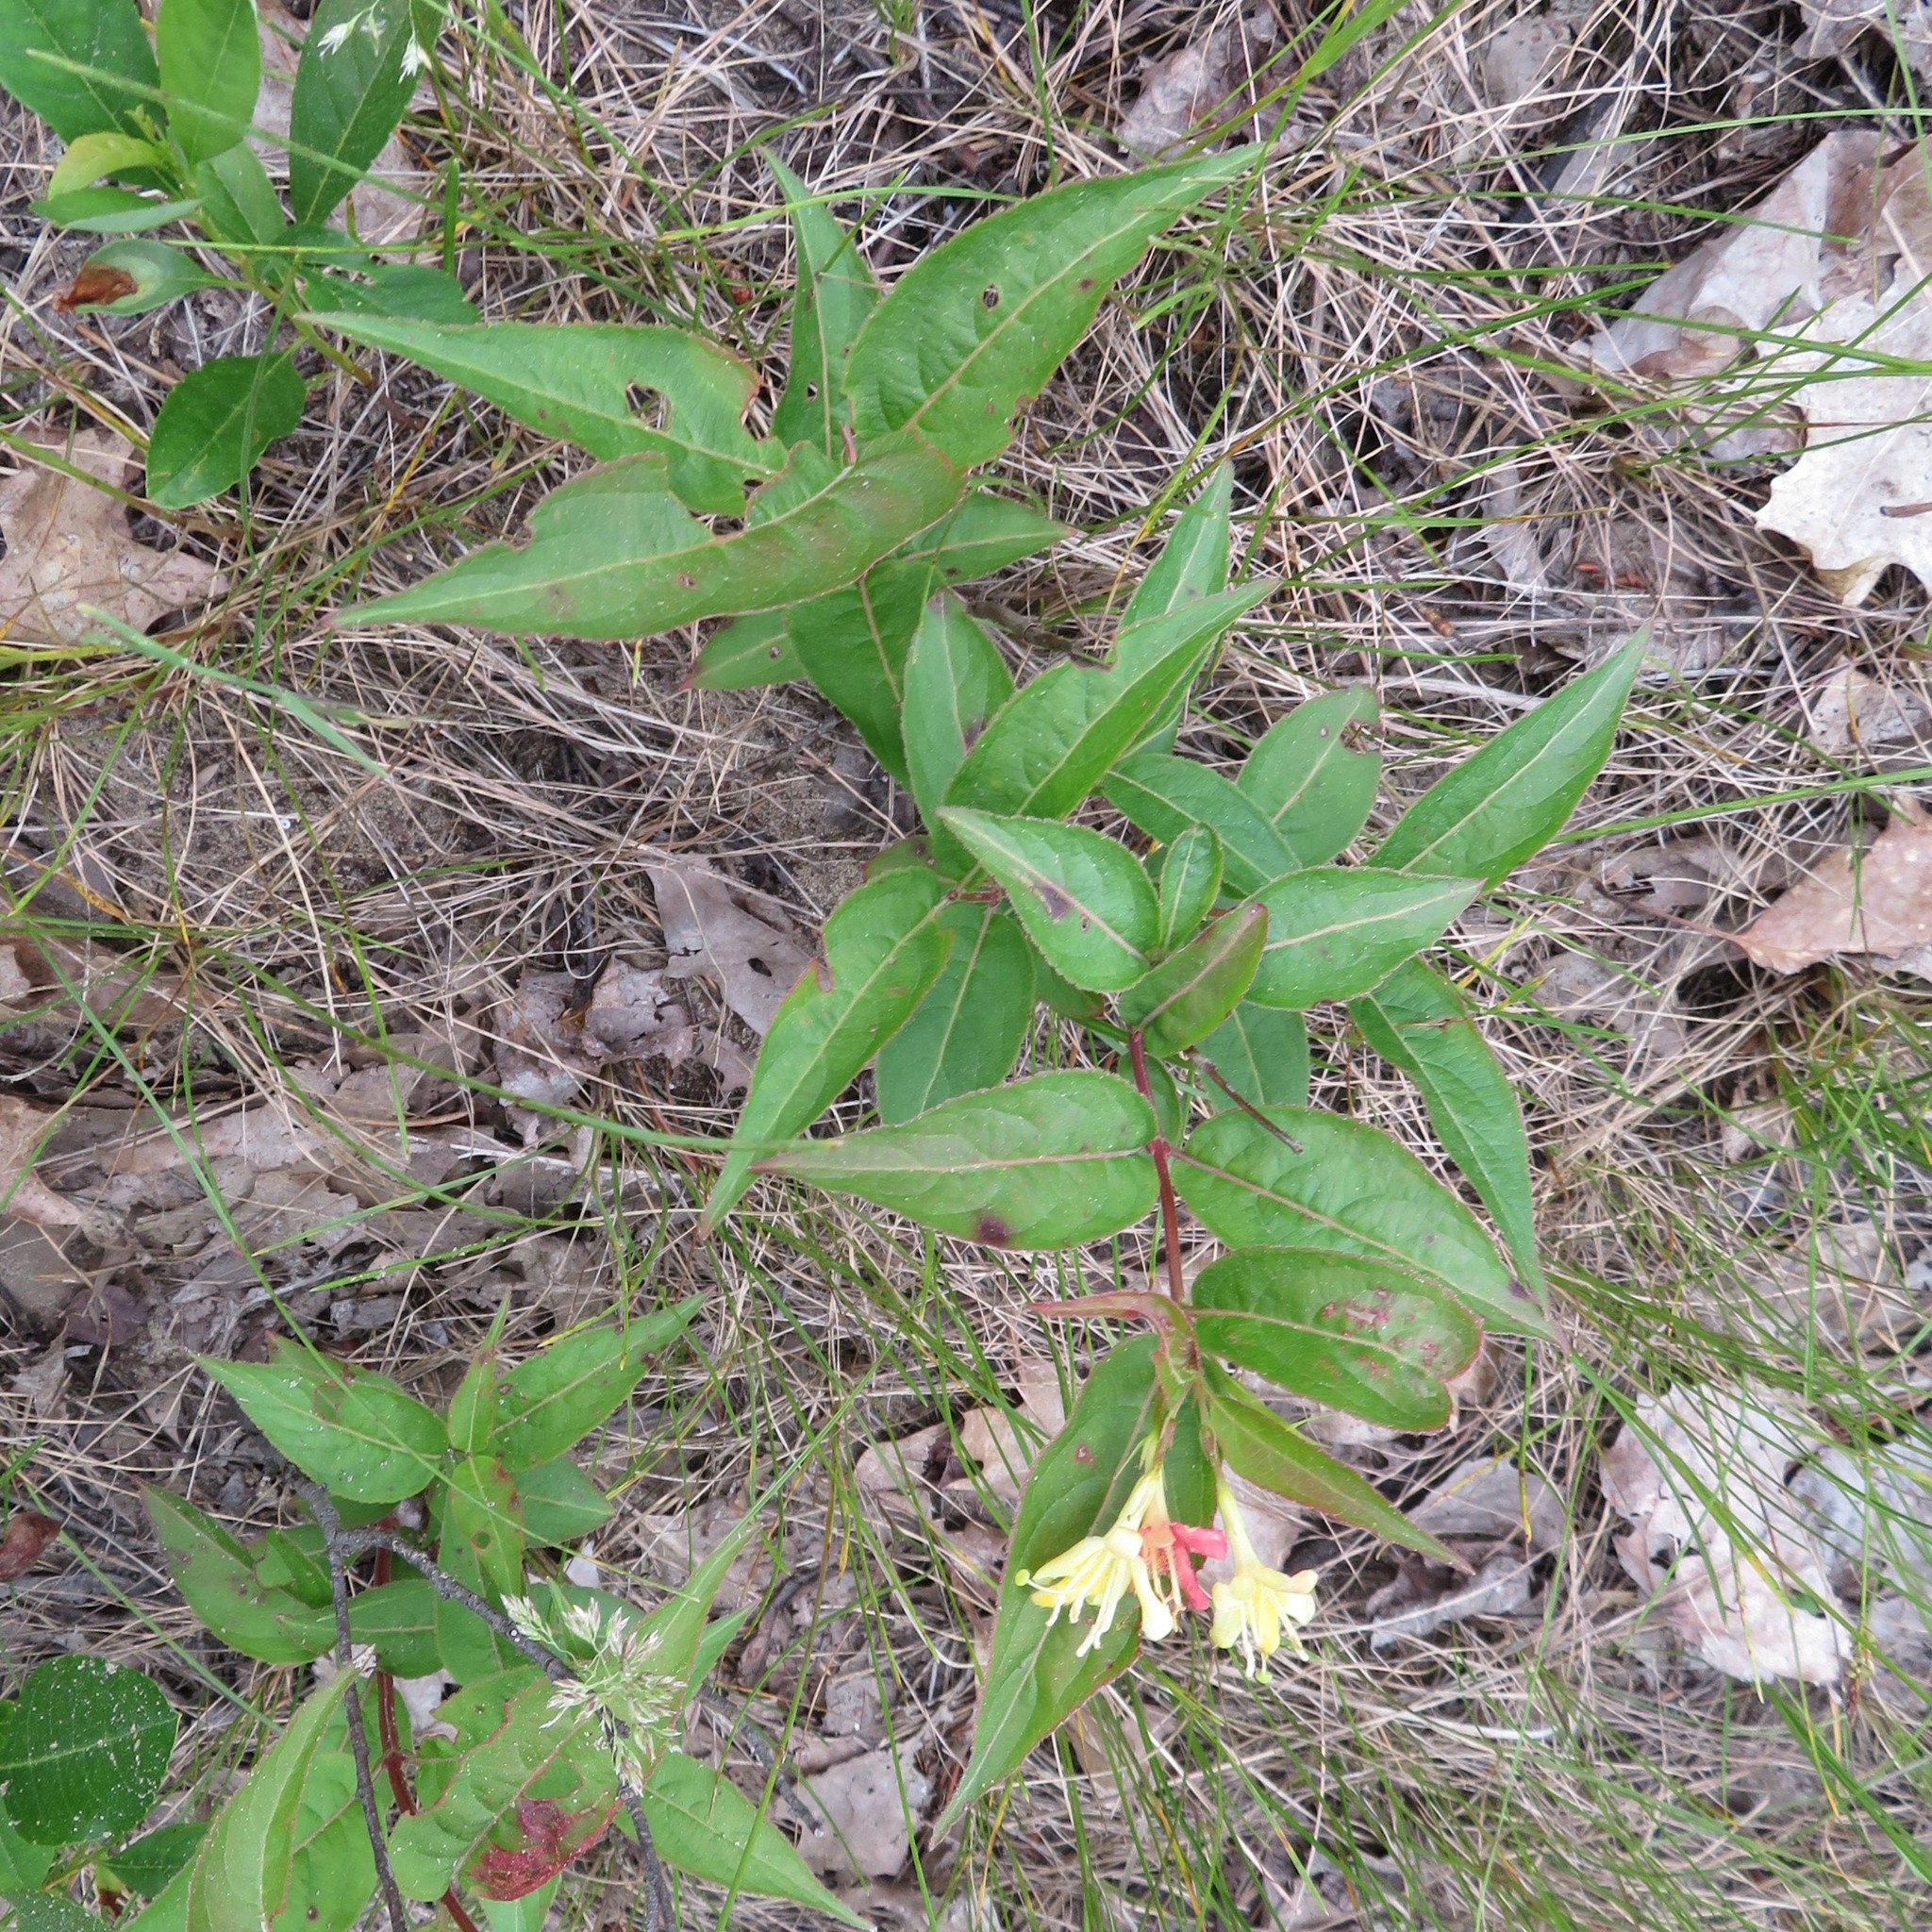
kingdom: Plantae
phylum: Tracheophyta
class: Magnoliopsida
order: Dipsacales
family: Caprifoliaceae
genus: Diervilla
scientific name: Diervilla lonicera
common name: Bush-honeysuckle
